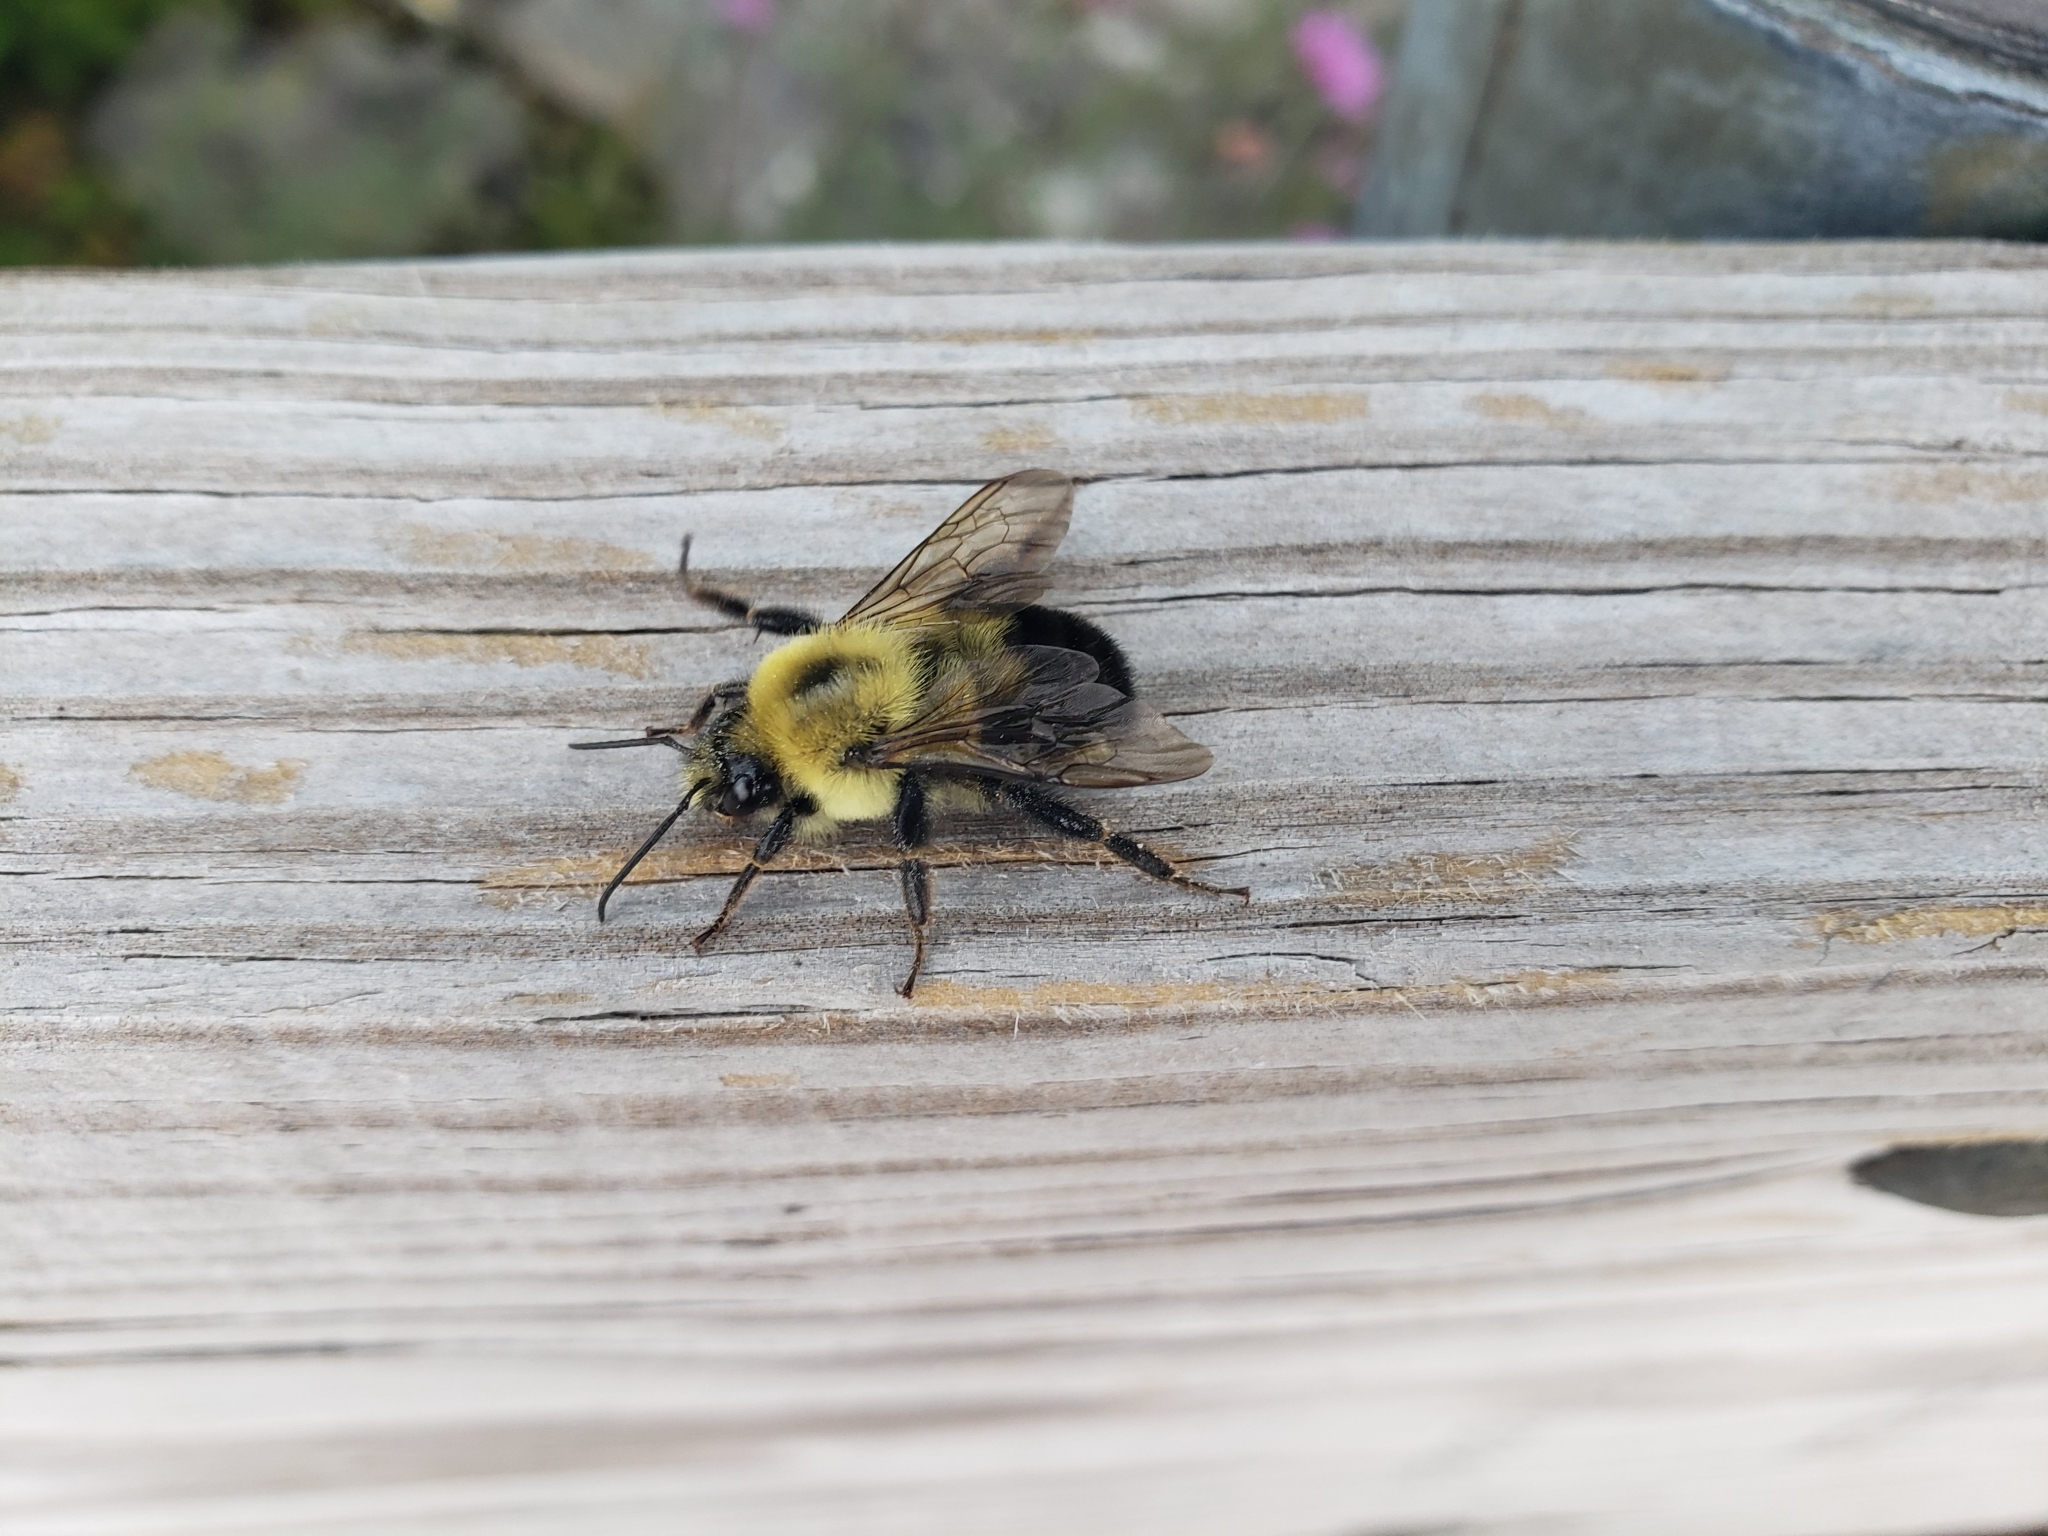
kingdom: Animalia
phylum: Arthropoda
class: Insecta
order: Hymenoptera
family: Apidae
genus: Bombus
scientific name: Bombus bimaculatus
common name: Two-spotted bumble bee
